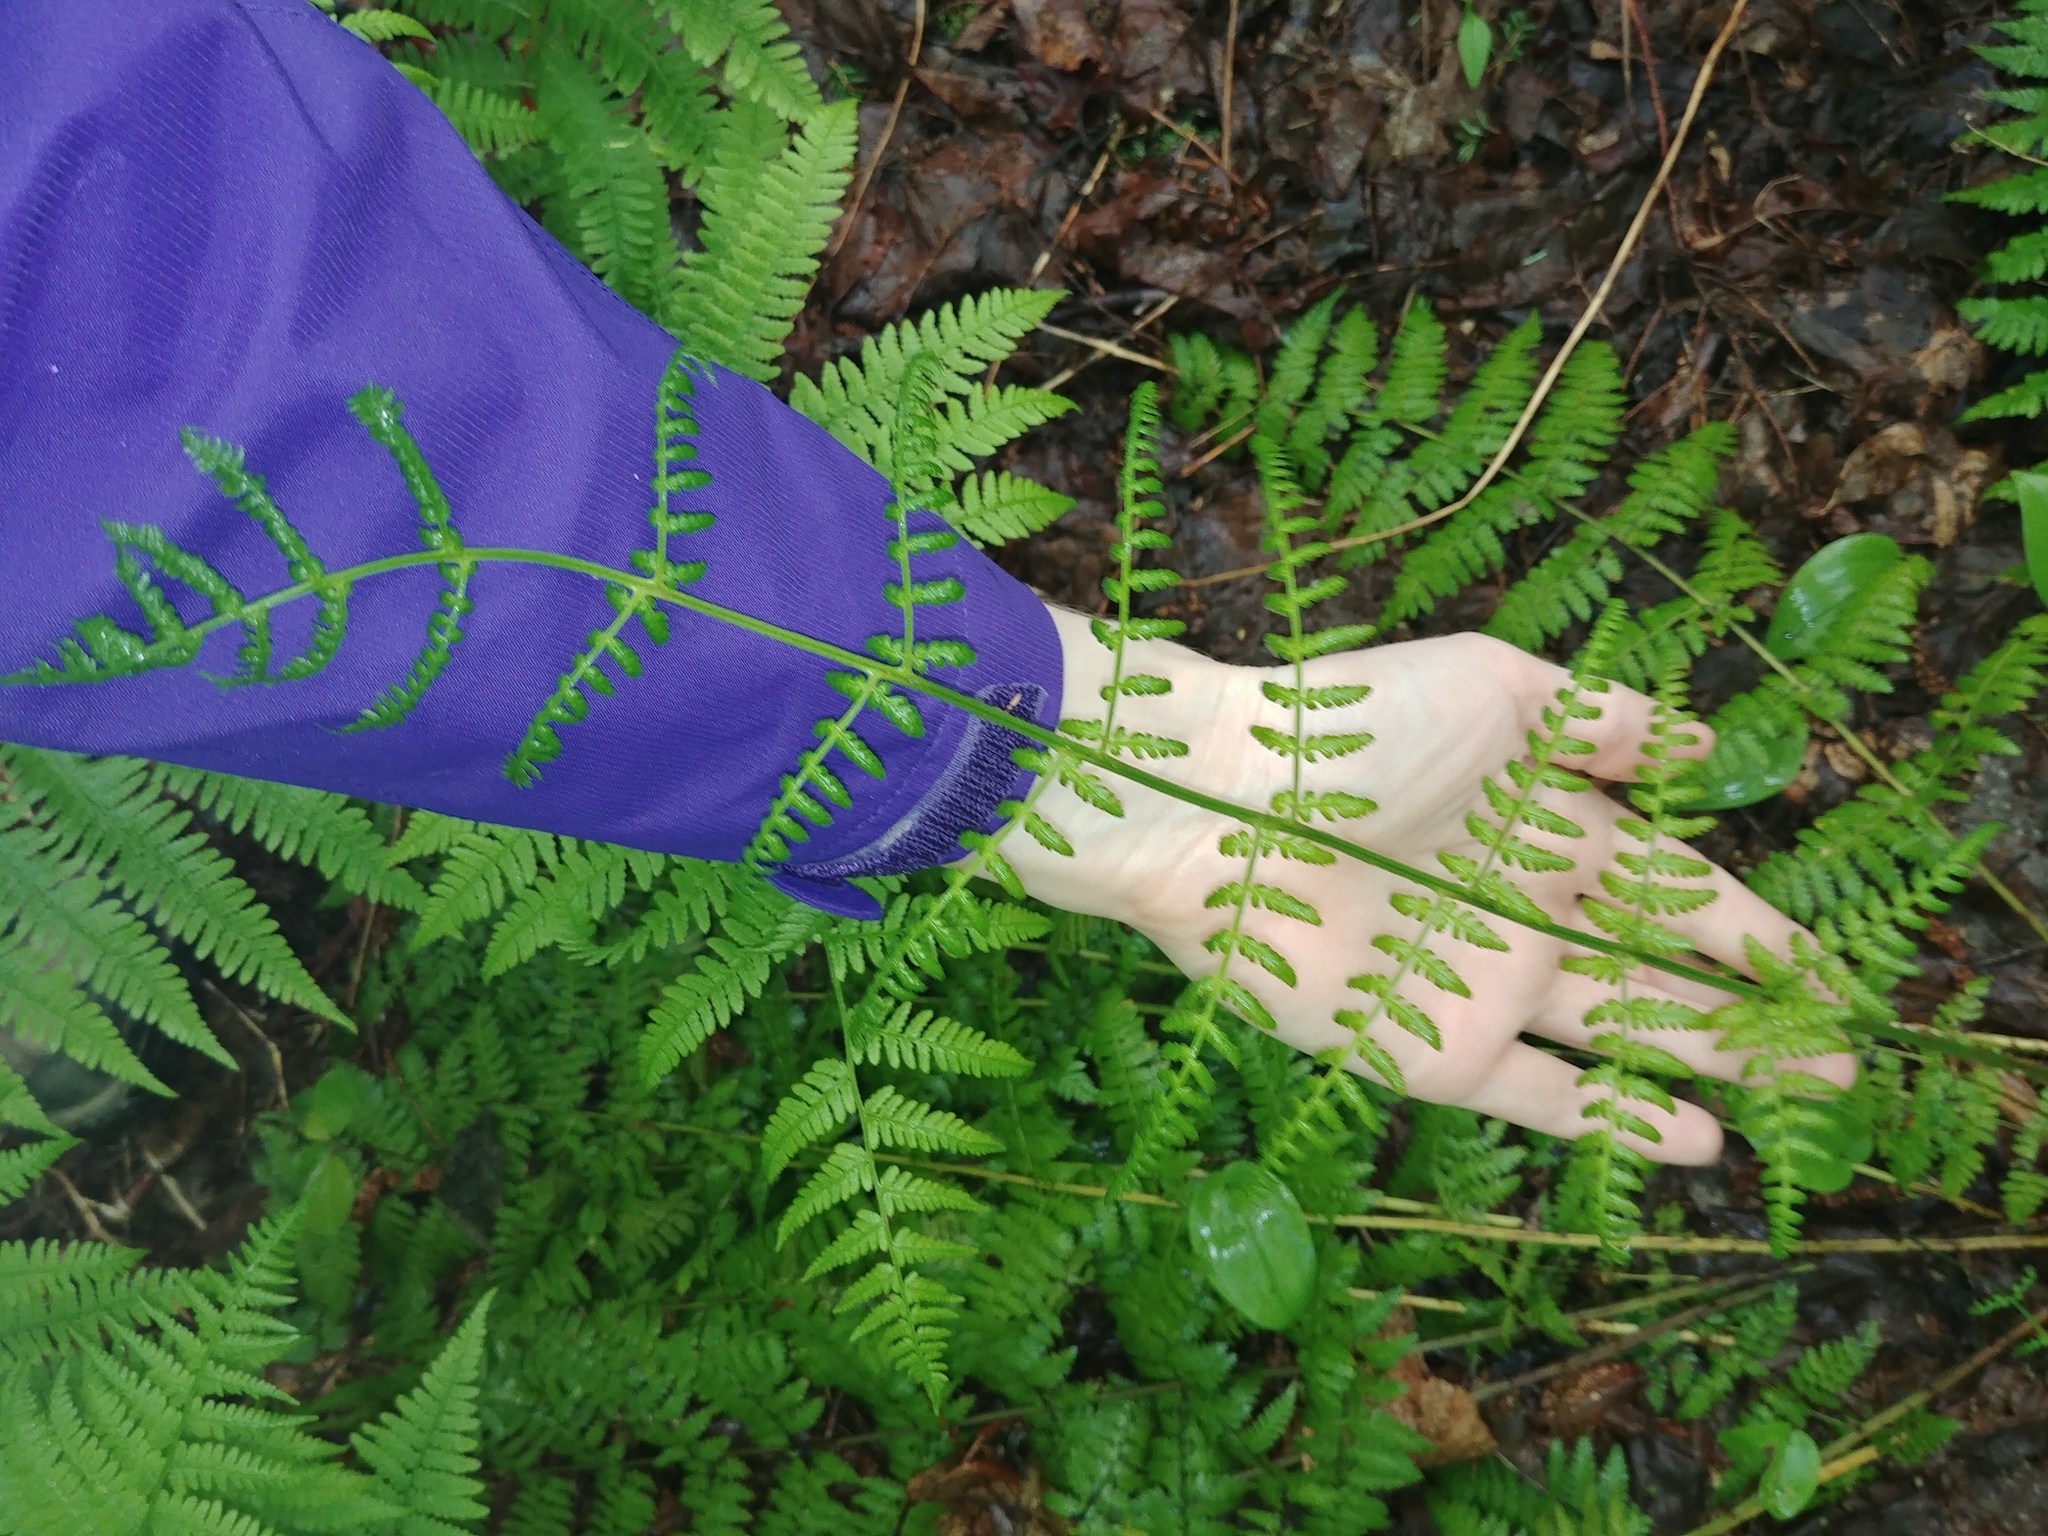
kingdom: Plantae
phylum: Tracheophyta
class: Polypodiopsida
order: Polypodiales
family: Dryopteridaceae
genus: Dryopteris
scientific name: Dryopteris intermedia
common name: Evergreen wood fern
